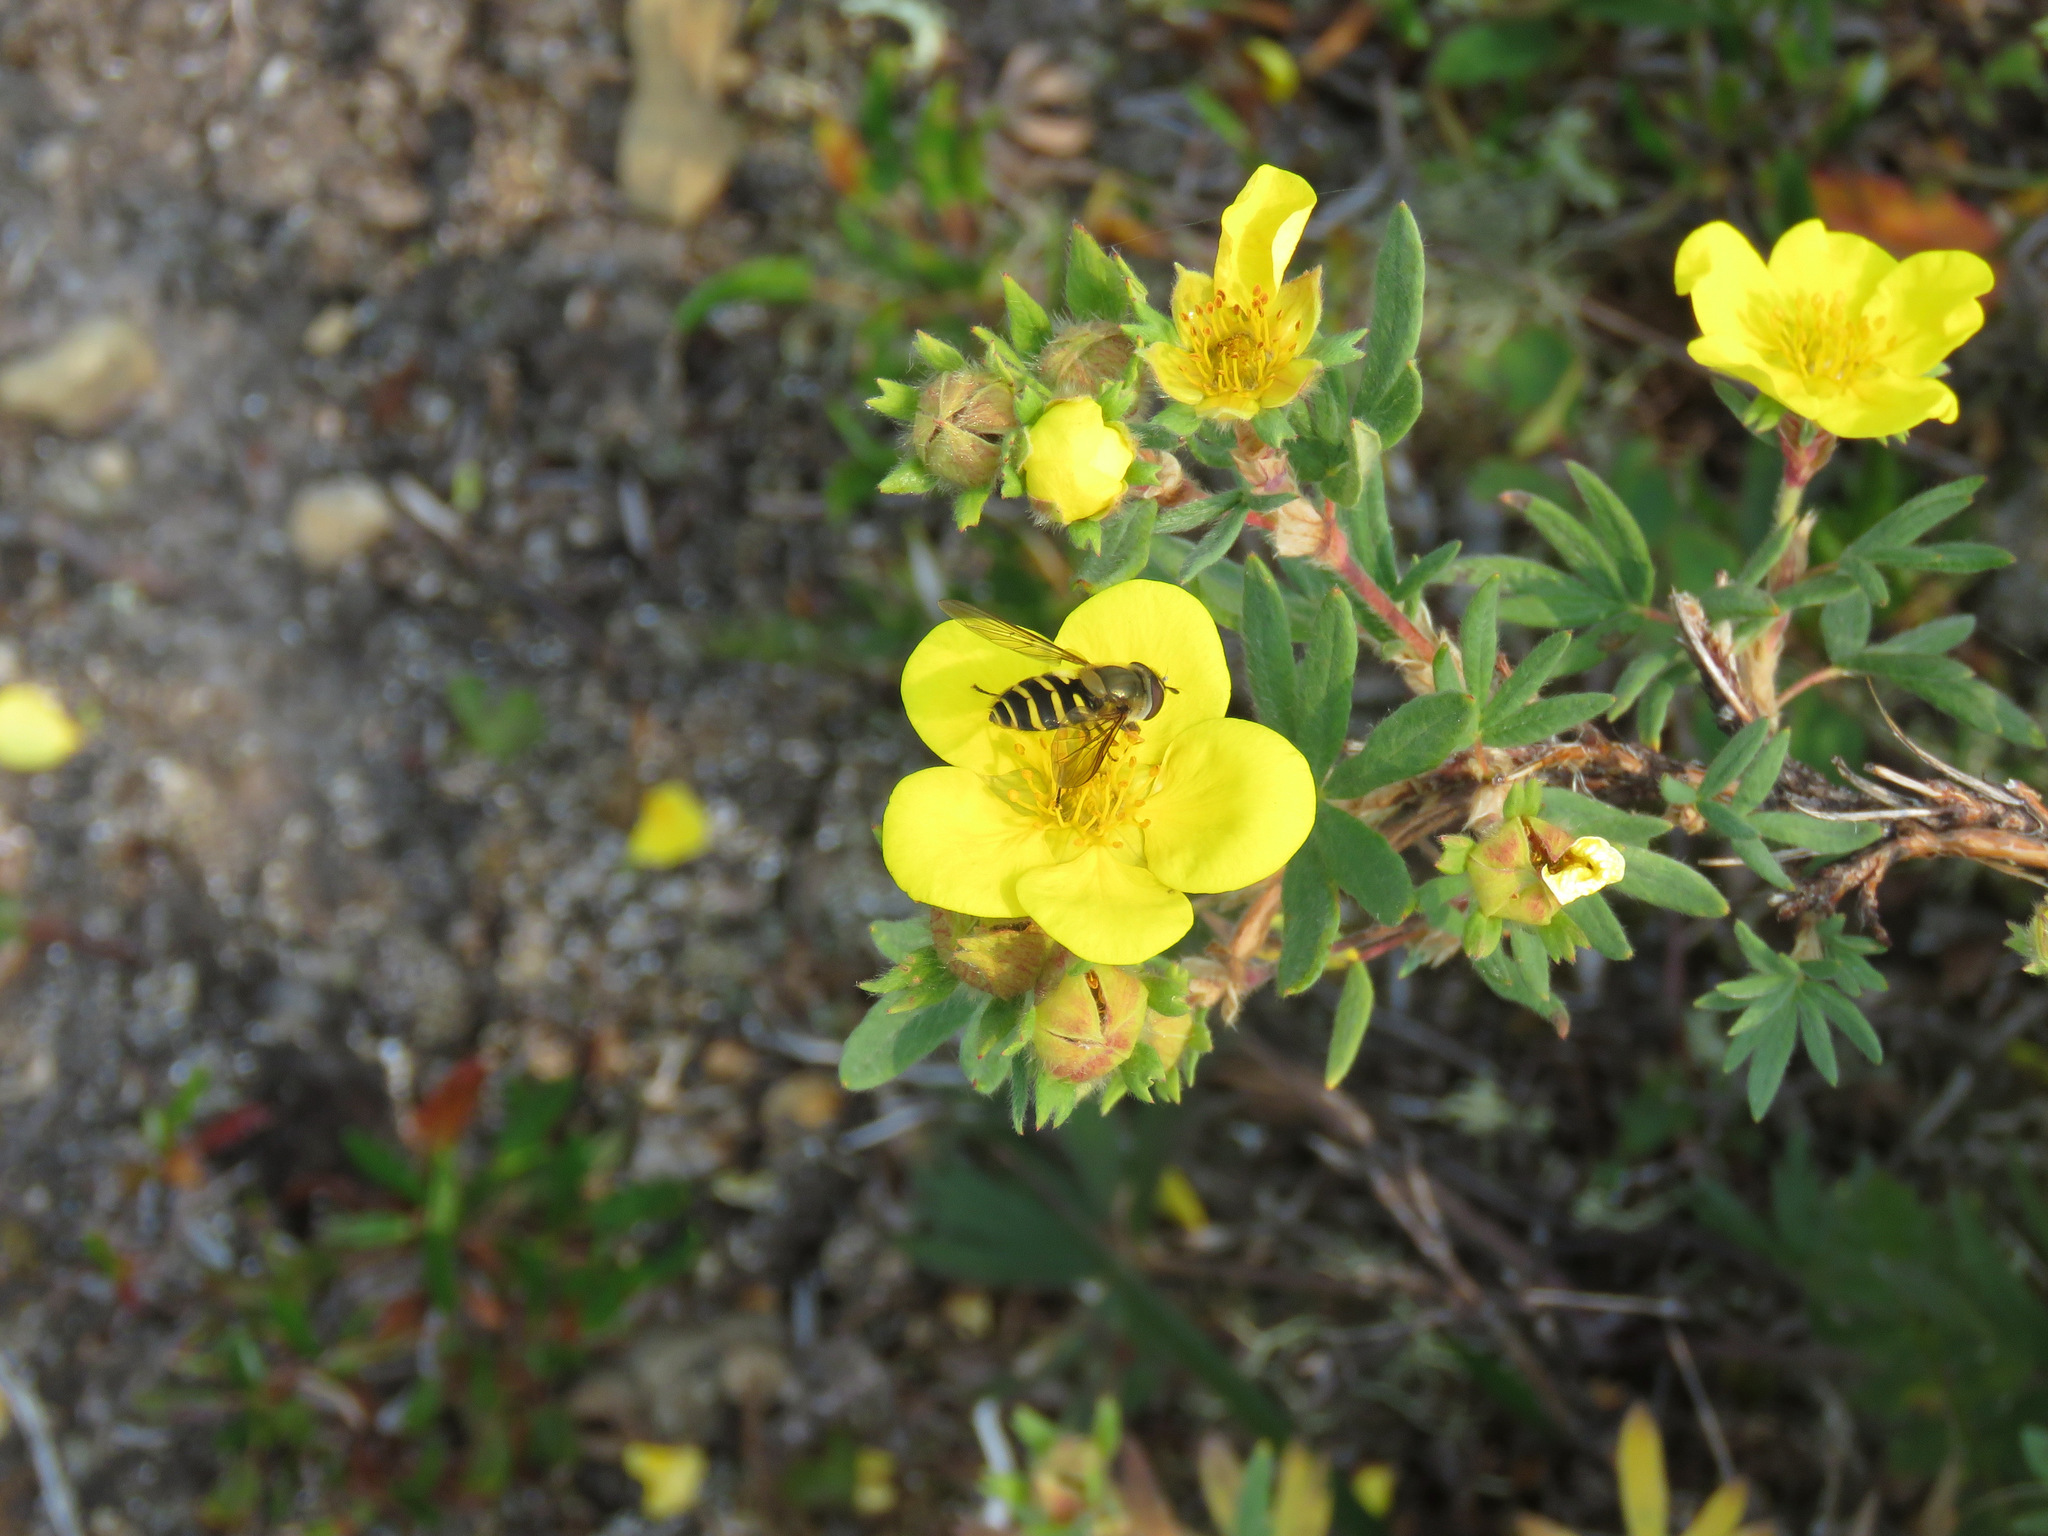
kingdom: Animalia
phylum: Arthropoda
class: Insecta
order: Diptera
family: Syrphidae
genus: Syrphus
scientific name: Syrphus
